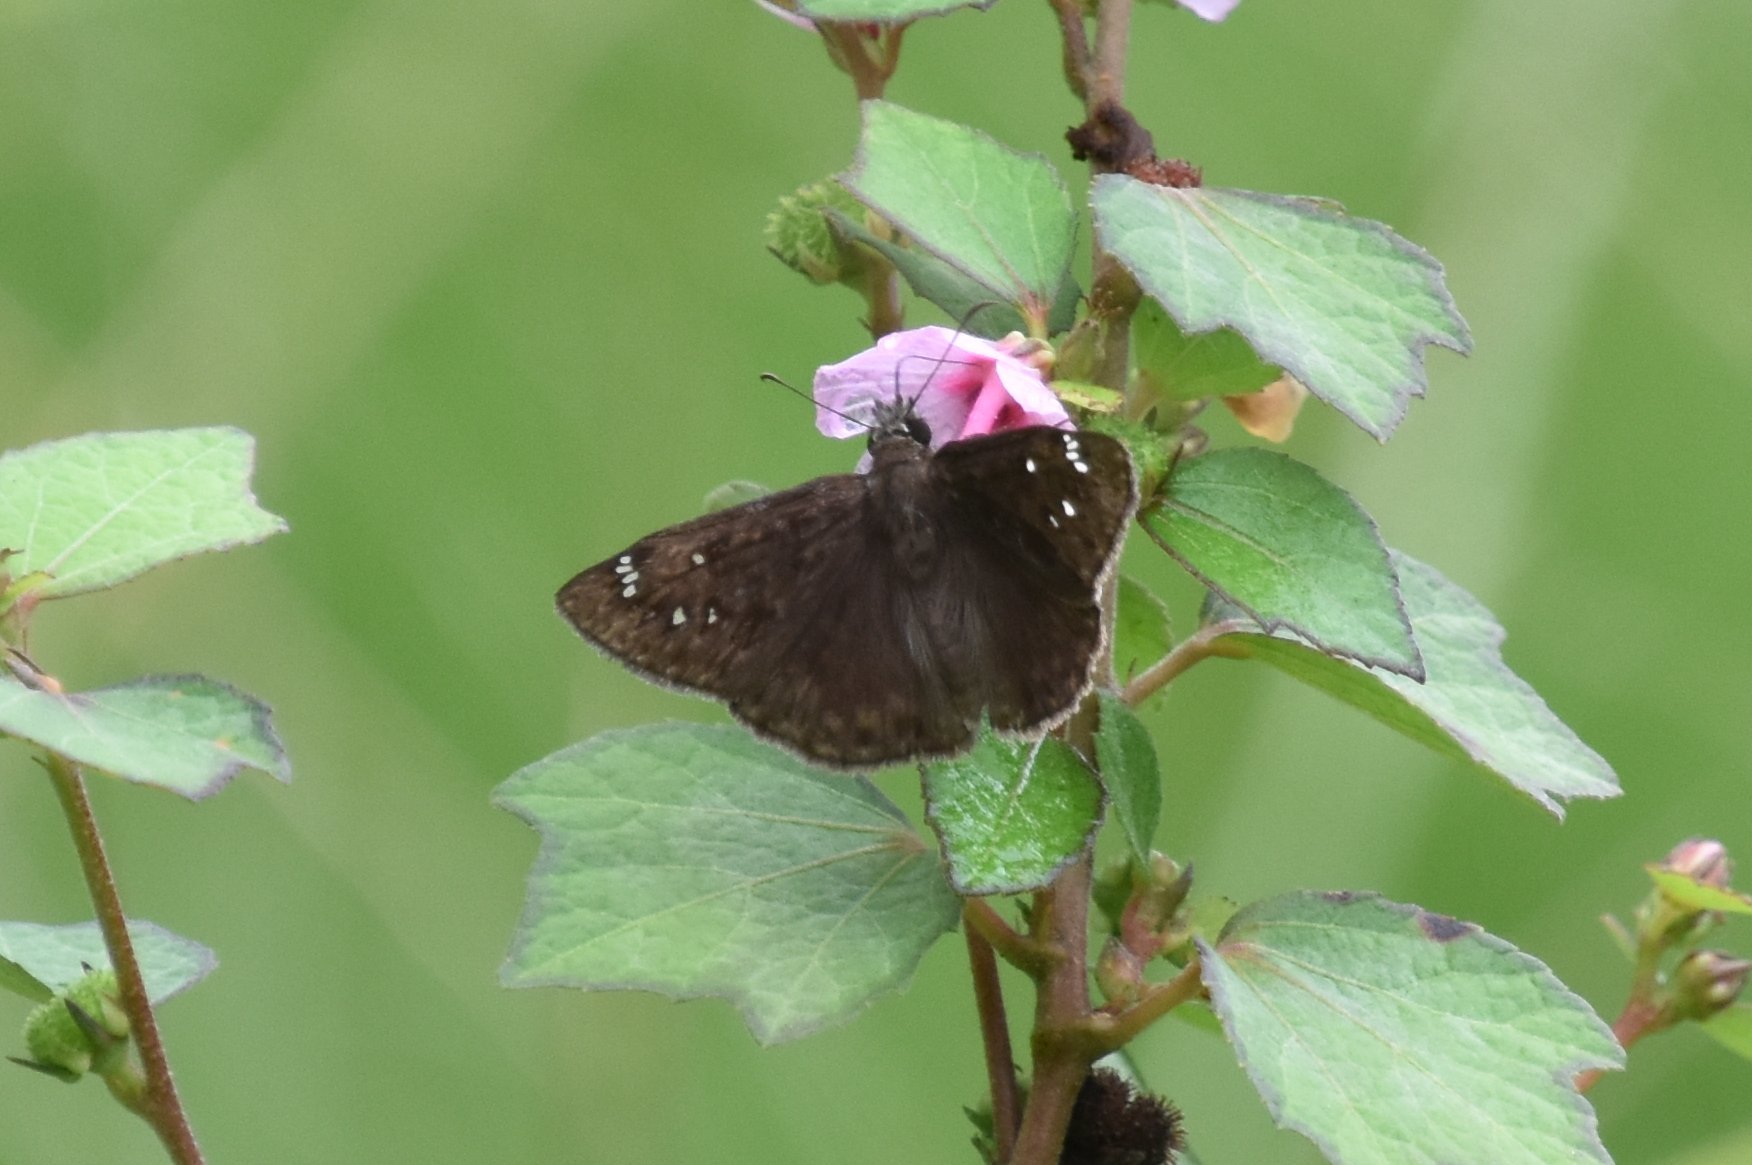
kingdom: Animalia
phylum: Arthropoda
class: Insecta
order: Lepidoptera
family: Hesperiidae
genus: Erynnis
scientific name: Erynnis horatius
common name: Horace's duskywing
